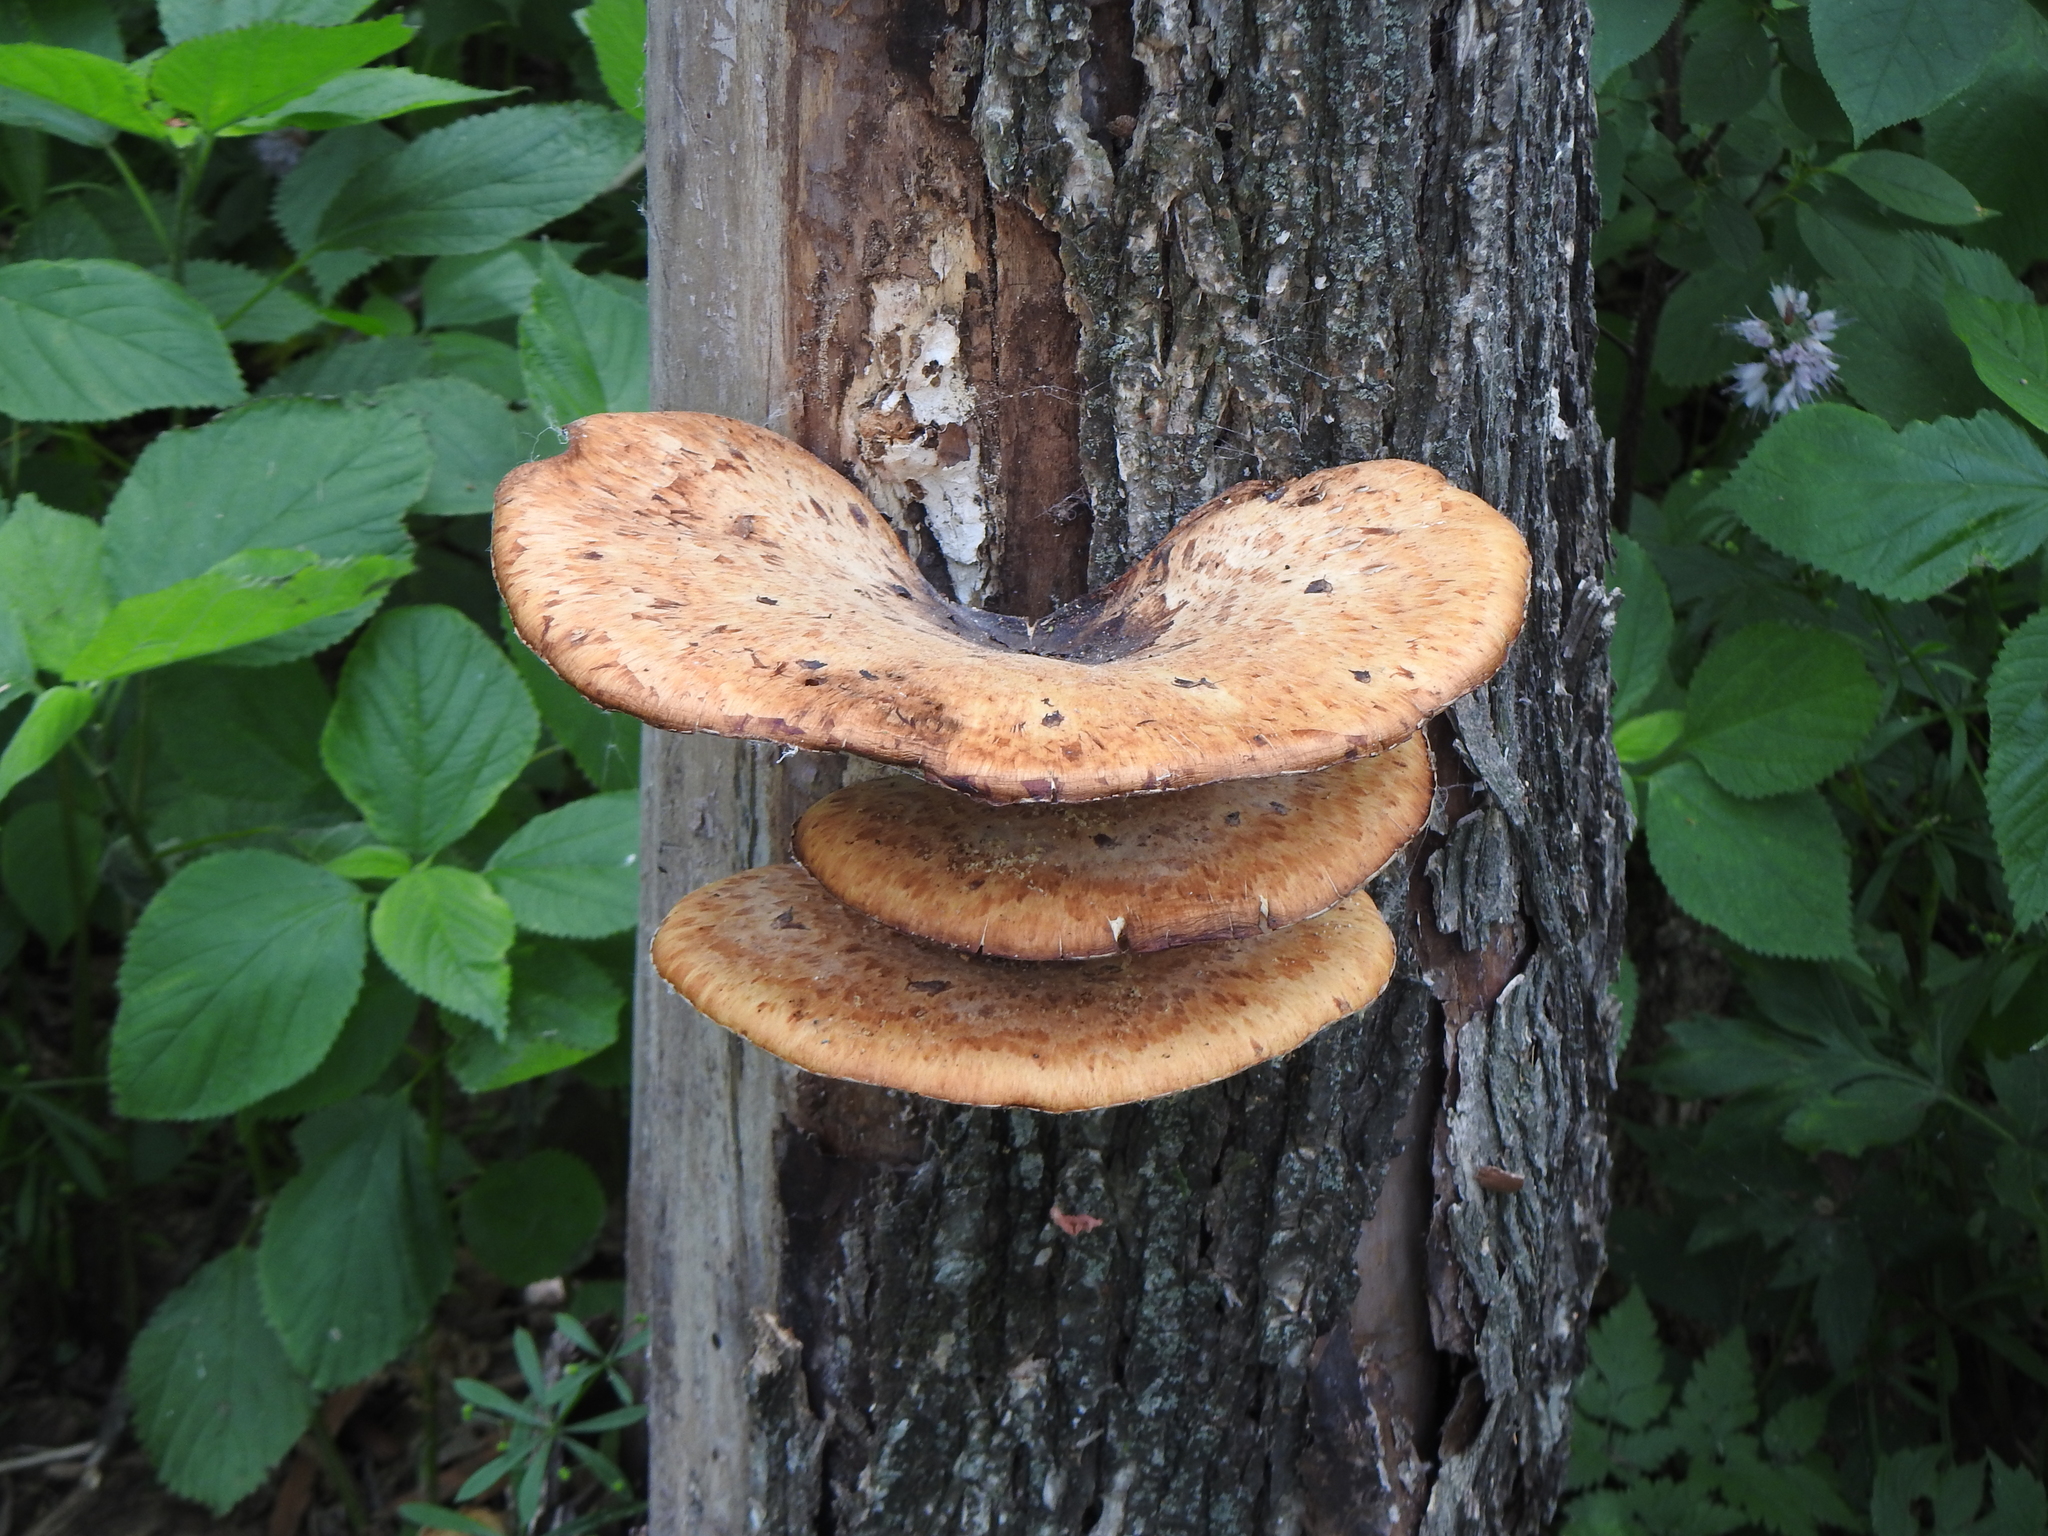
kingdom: Fungi
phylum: Basidiomycota
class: Agaricomycetes
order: Polyporales
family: Polyporaceae
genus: Cerioporus
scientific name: Cerioporus squamosus
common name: Dryad's saddle
